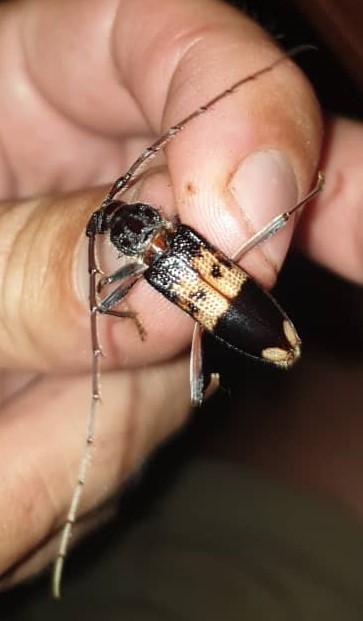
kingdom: Animalia
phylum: Arthropoda
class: Insecta
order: Coleoptera
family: Cerambycidae
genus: Phoracantha
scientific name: Phoracantha semipunctata
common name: Eucalyptus longhorn borer
